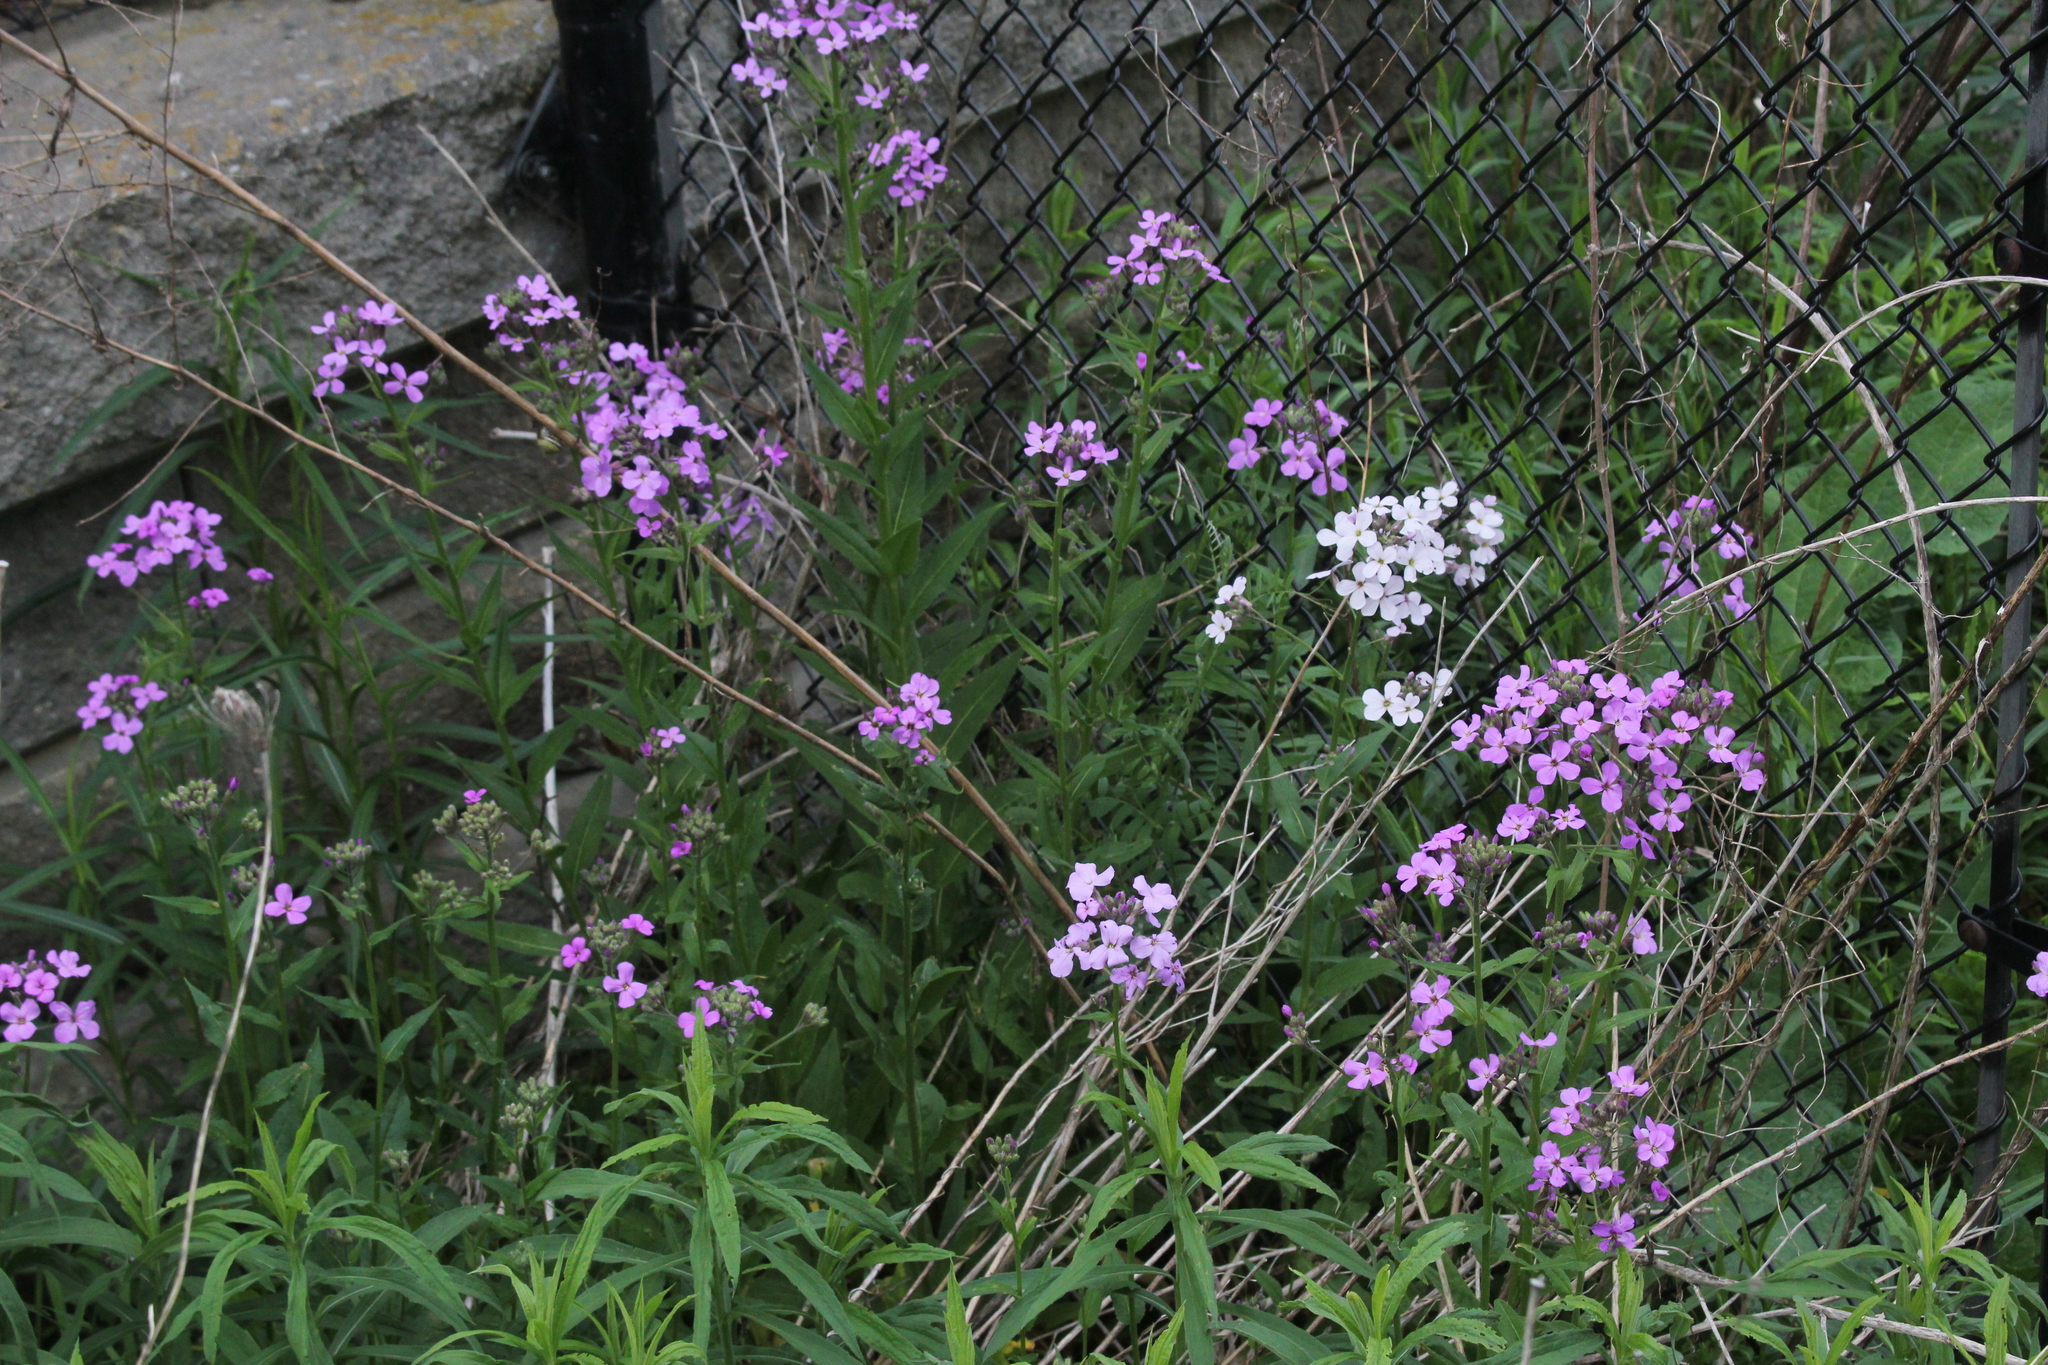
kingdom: Plantae
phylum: Tracheophyta
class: Magnoliopsida
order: Brassicales
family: Brassicaceae
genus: Hesperis
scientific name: Hesperis matronalis
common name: Dame's-violet
